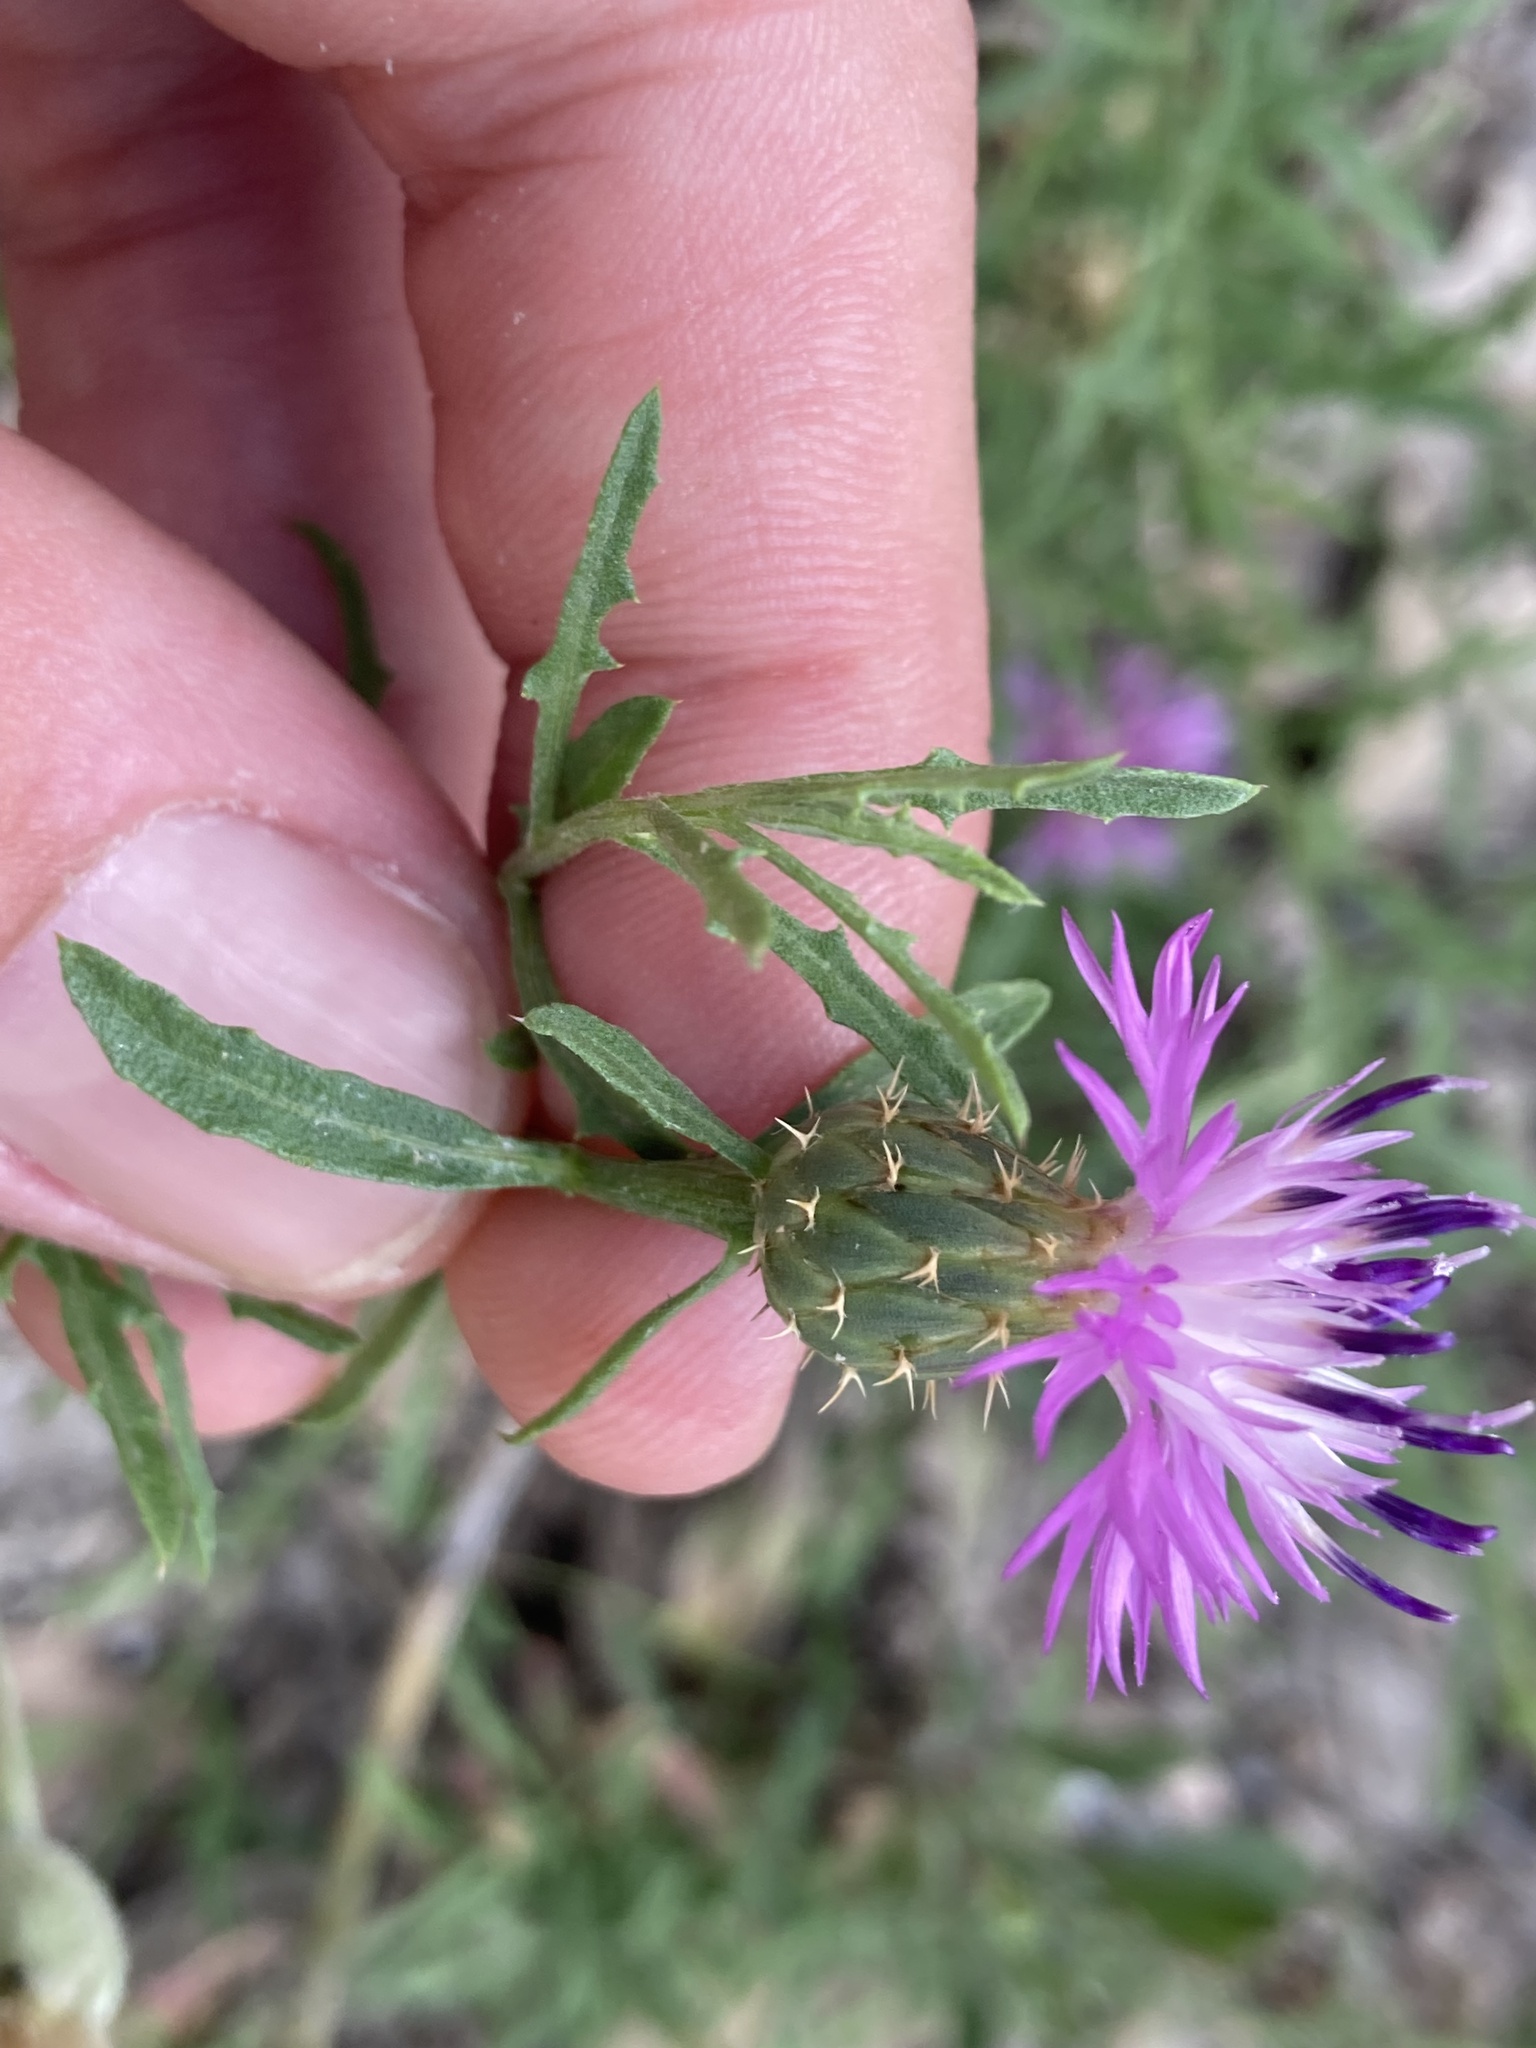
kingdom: Plantae
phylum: Tracheophyta
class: Magnoliopsida
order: Asterales
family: Asteraceae
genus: Centaurea
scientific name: Centaurea aspera
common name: Rough star-thistle
